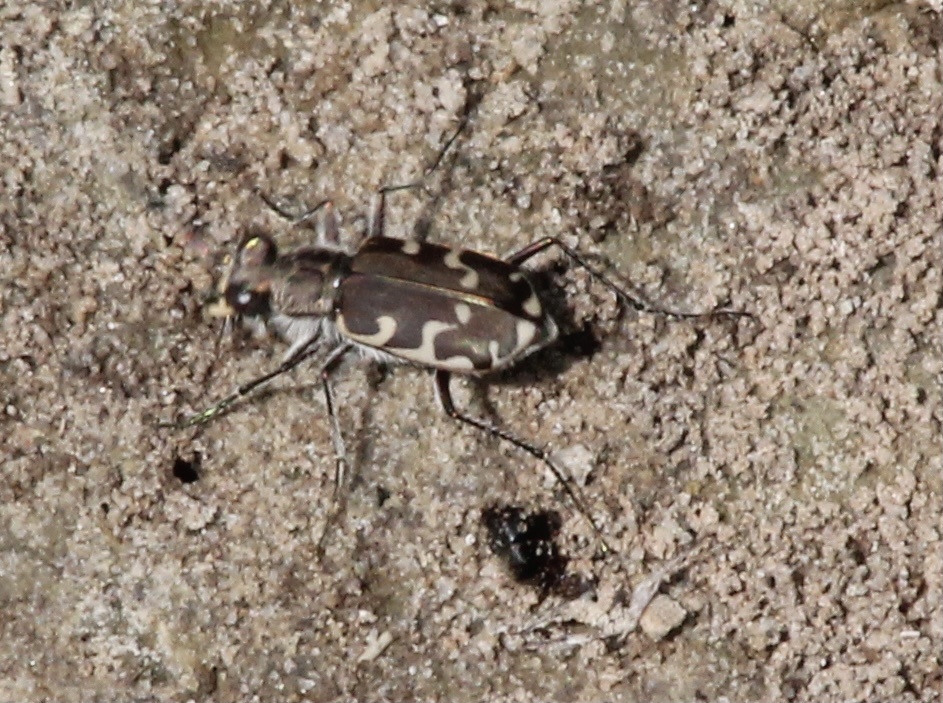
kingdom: Animalia
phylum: Arthropoda
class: Insecta
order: Coleoptera
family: Carabidae
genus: Cicindela
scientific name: Cicindela repanda
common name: Bronzed tiger beetle
